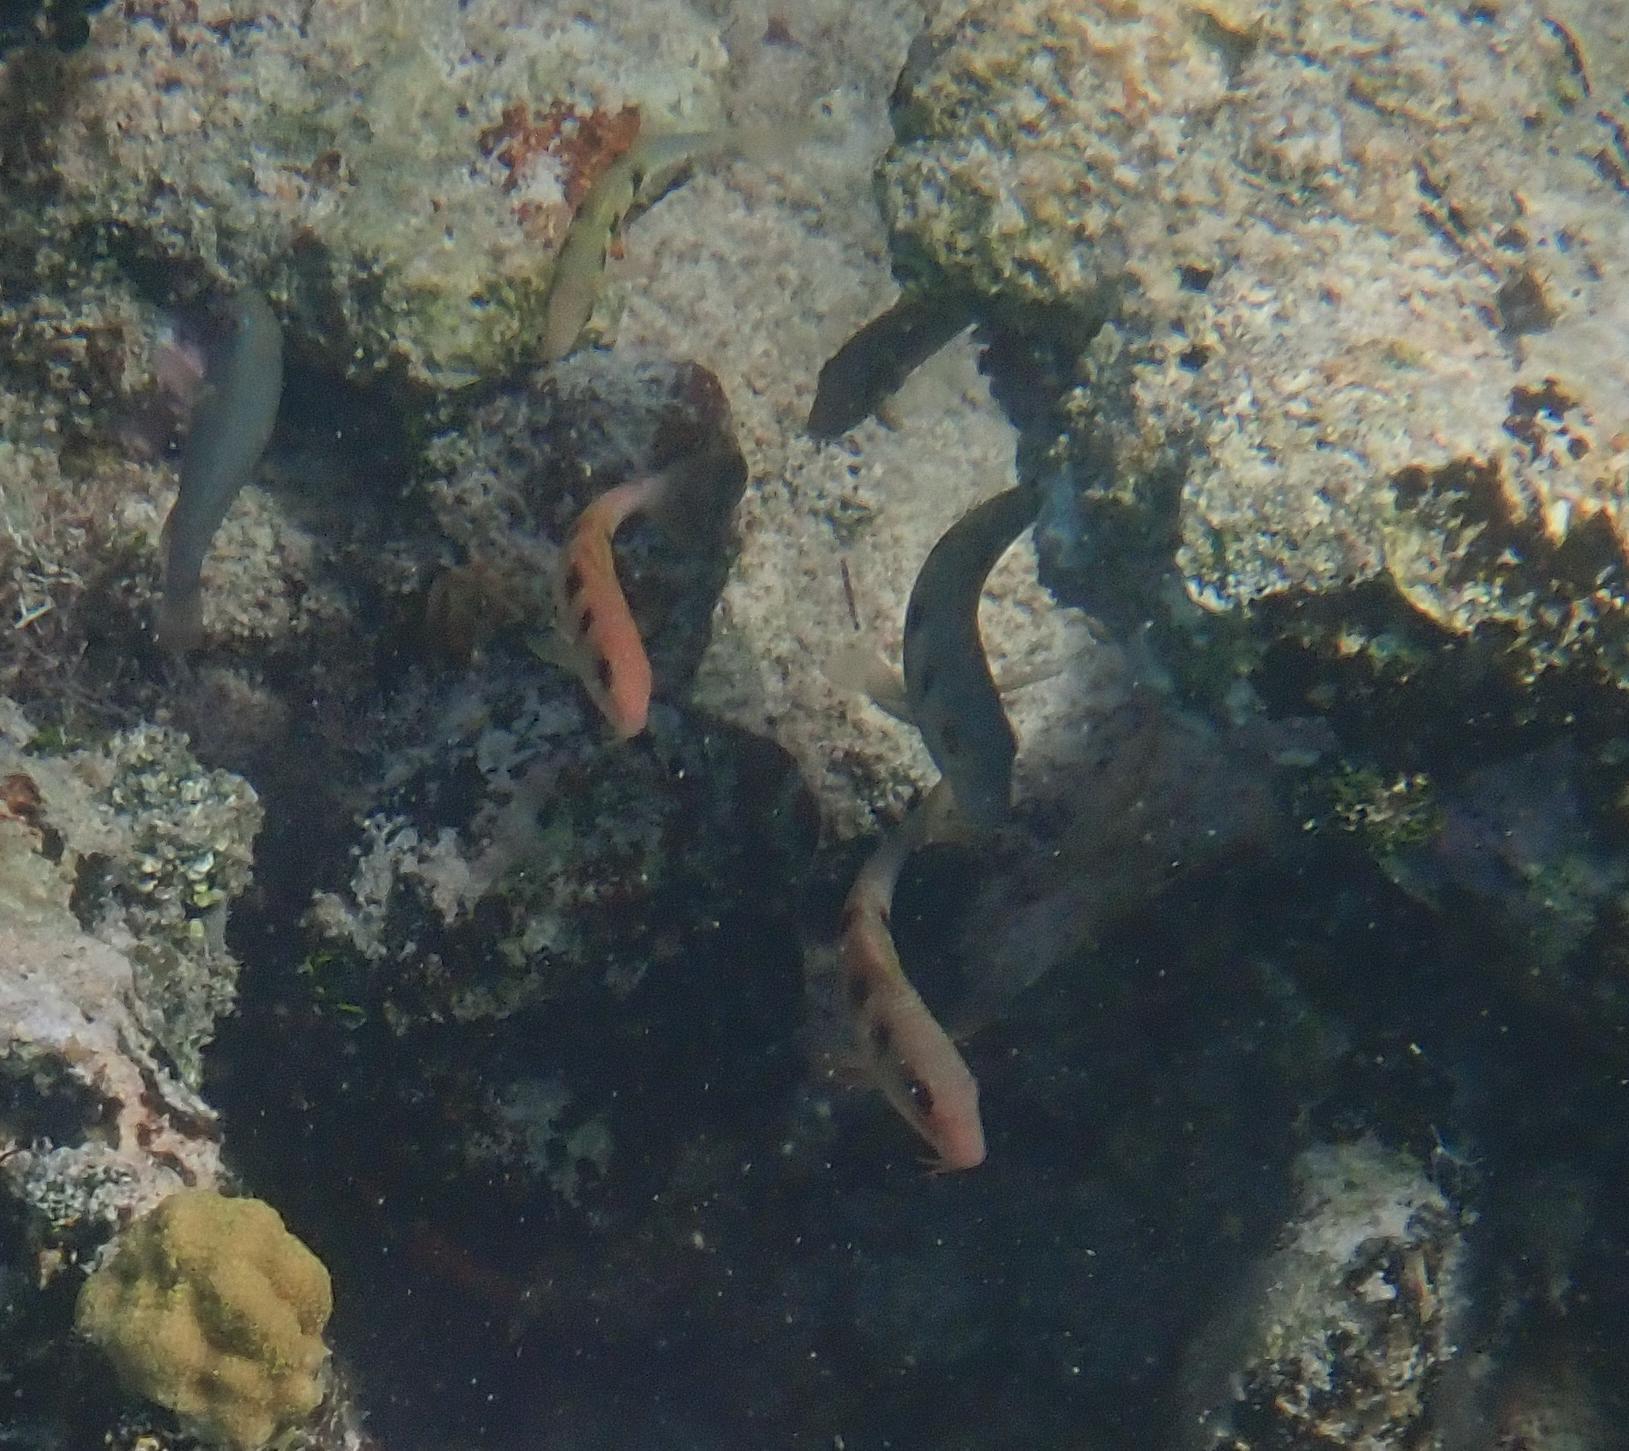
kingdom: Animalia
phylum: Chordata
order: Perciformes
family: Mullidae
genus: Pseudupeneus
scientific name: Pseudupeneus maculatus
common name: Spotted goatfish
